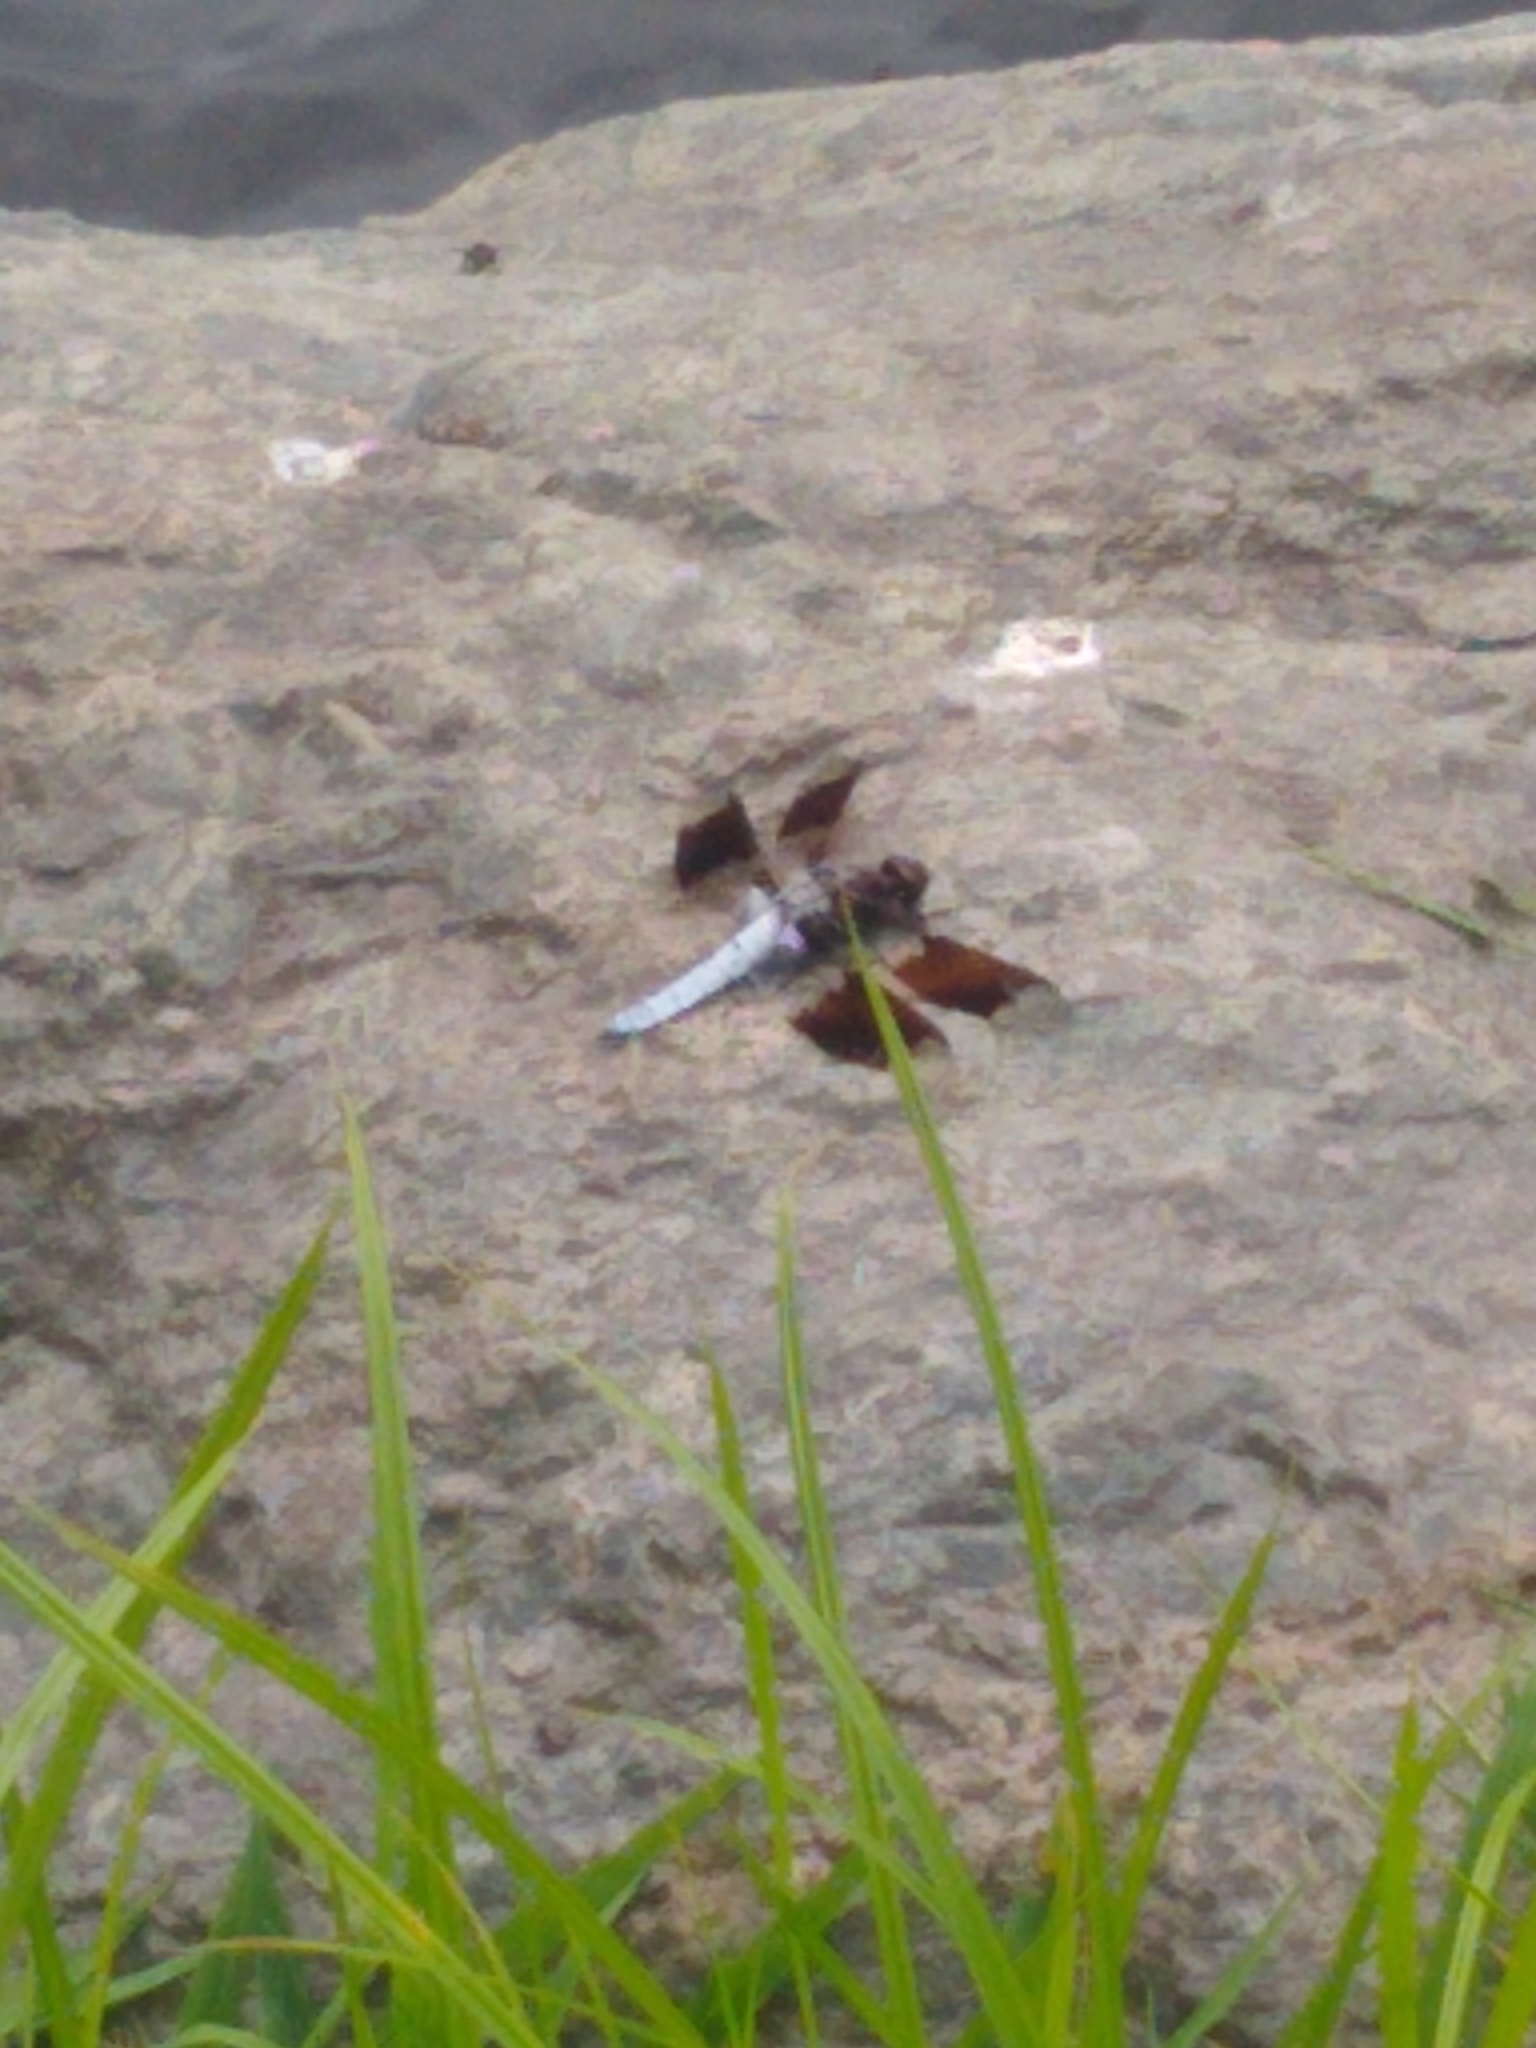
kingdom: Animalia
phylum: Arthropoda
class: Insecta
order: Odonata
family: Libellulidae
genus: Plathemis
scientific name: Plathemis lydia
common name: Common whitetail
